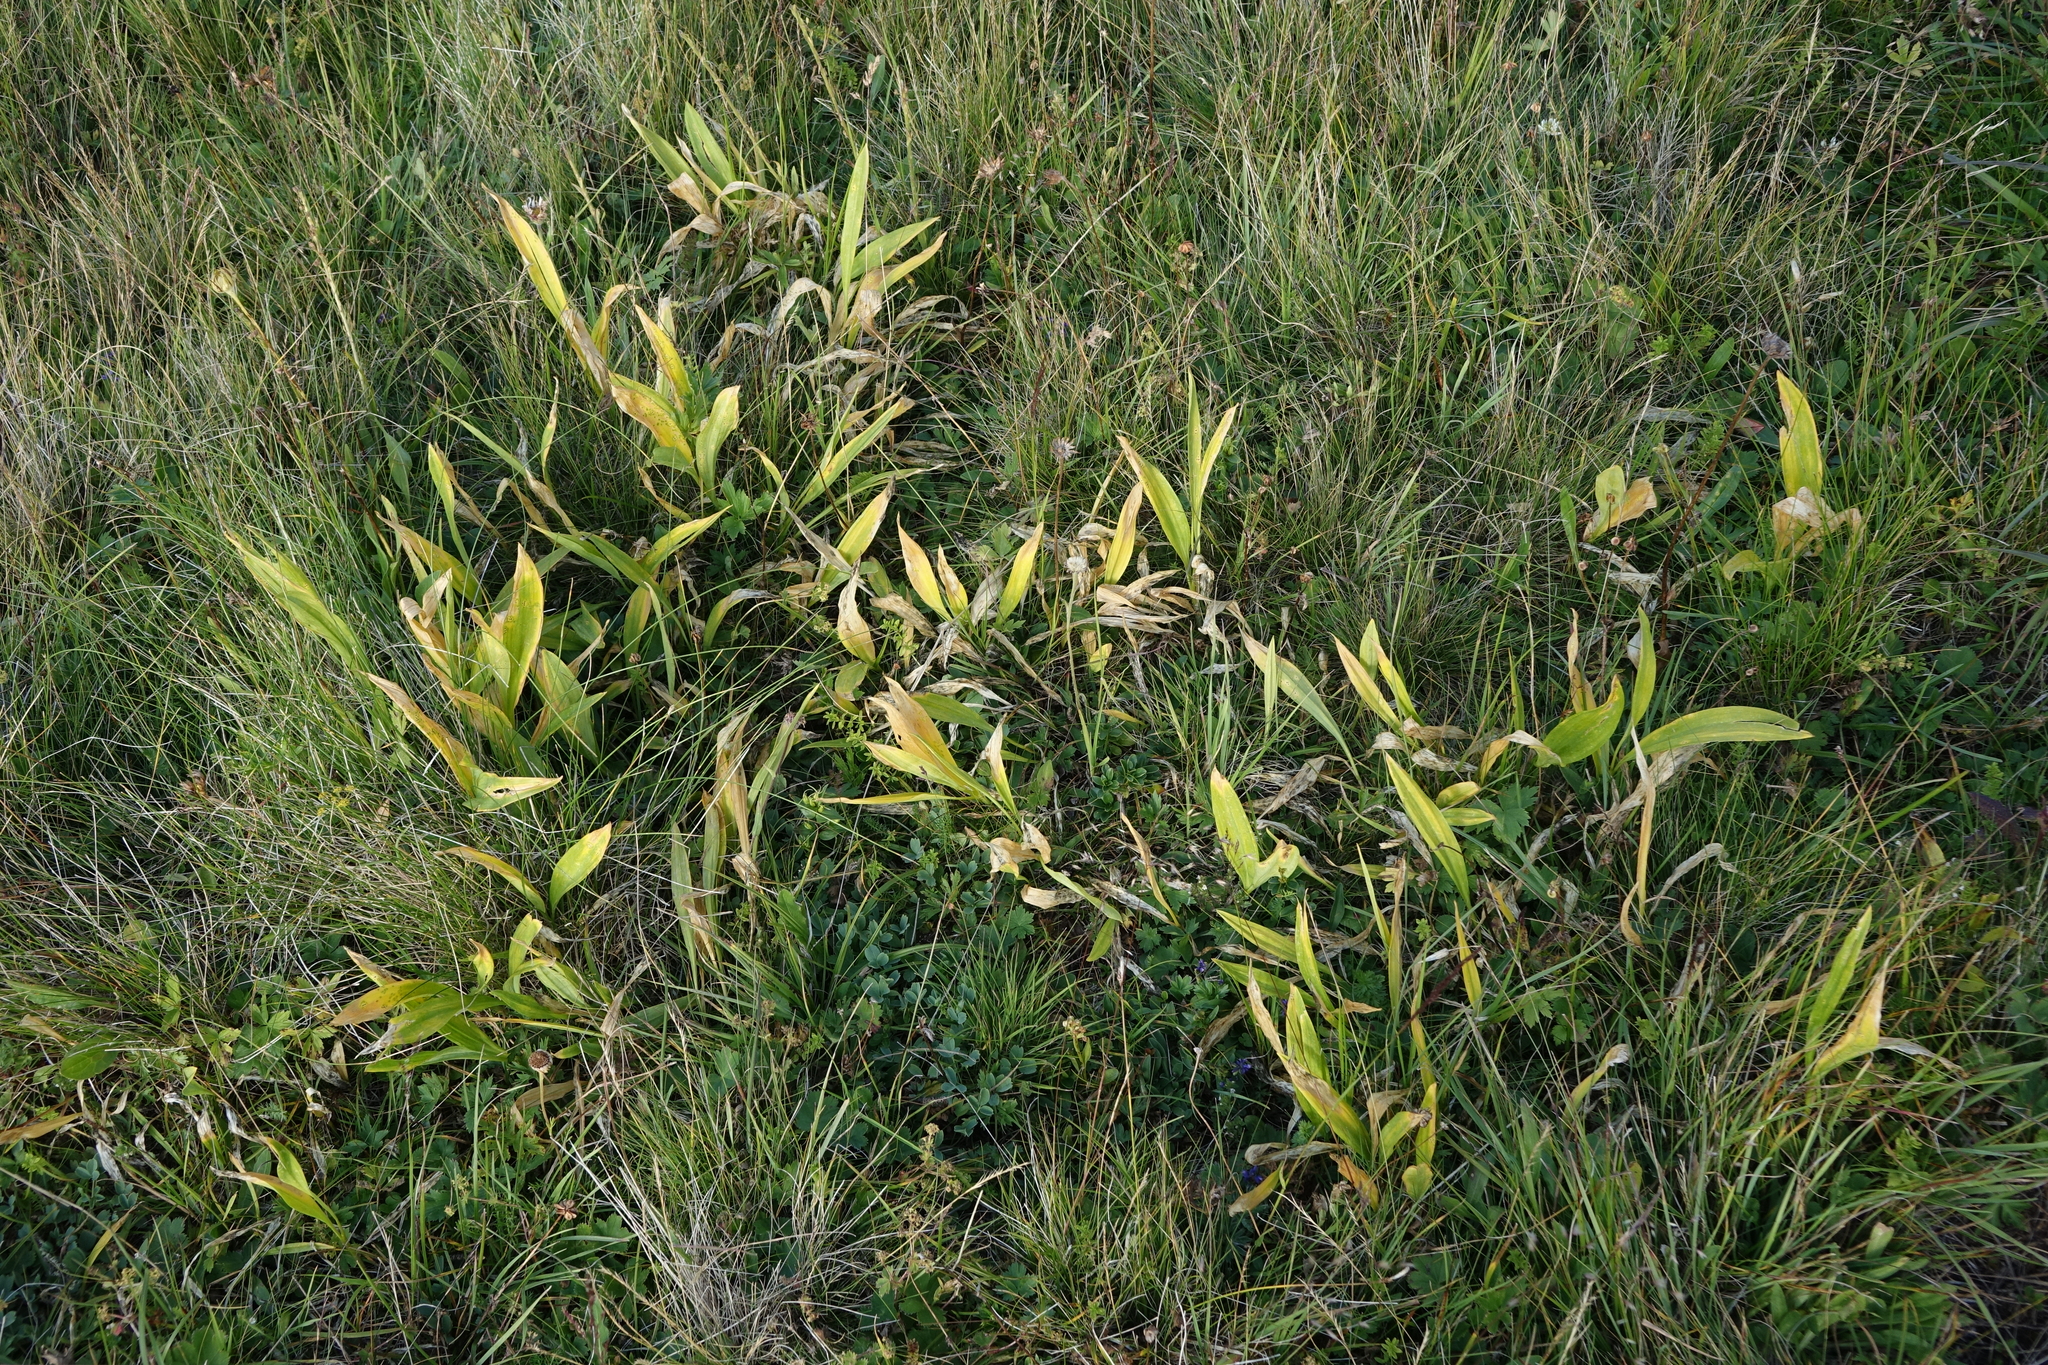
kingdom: Plantae
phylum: Tracheophyta
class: Liliopsida
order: Asparagales
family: Amaryllidaceae
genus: Allium
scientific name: Allium victorialis
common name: Alpine leek
